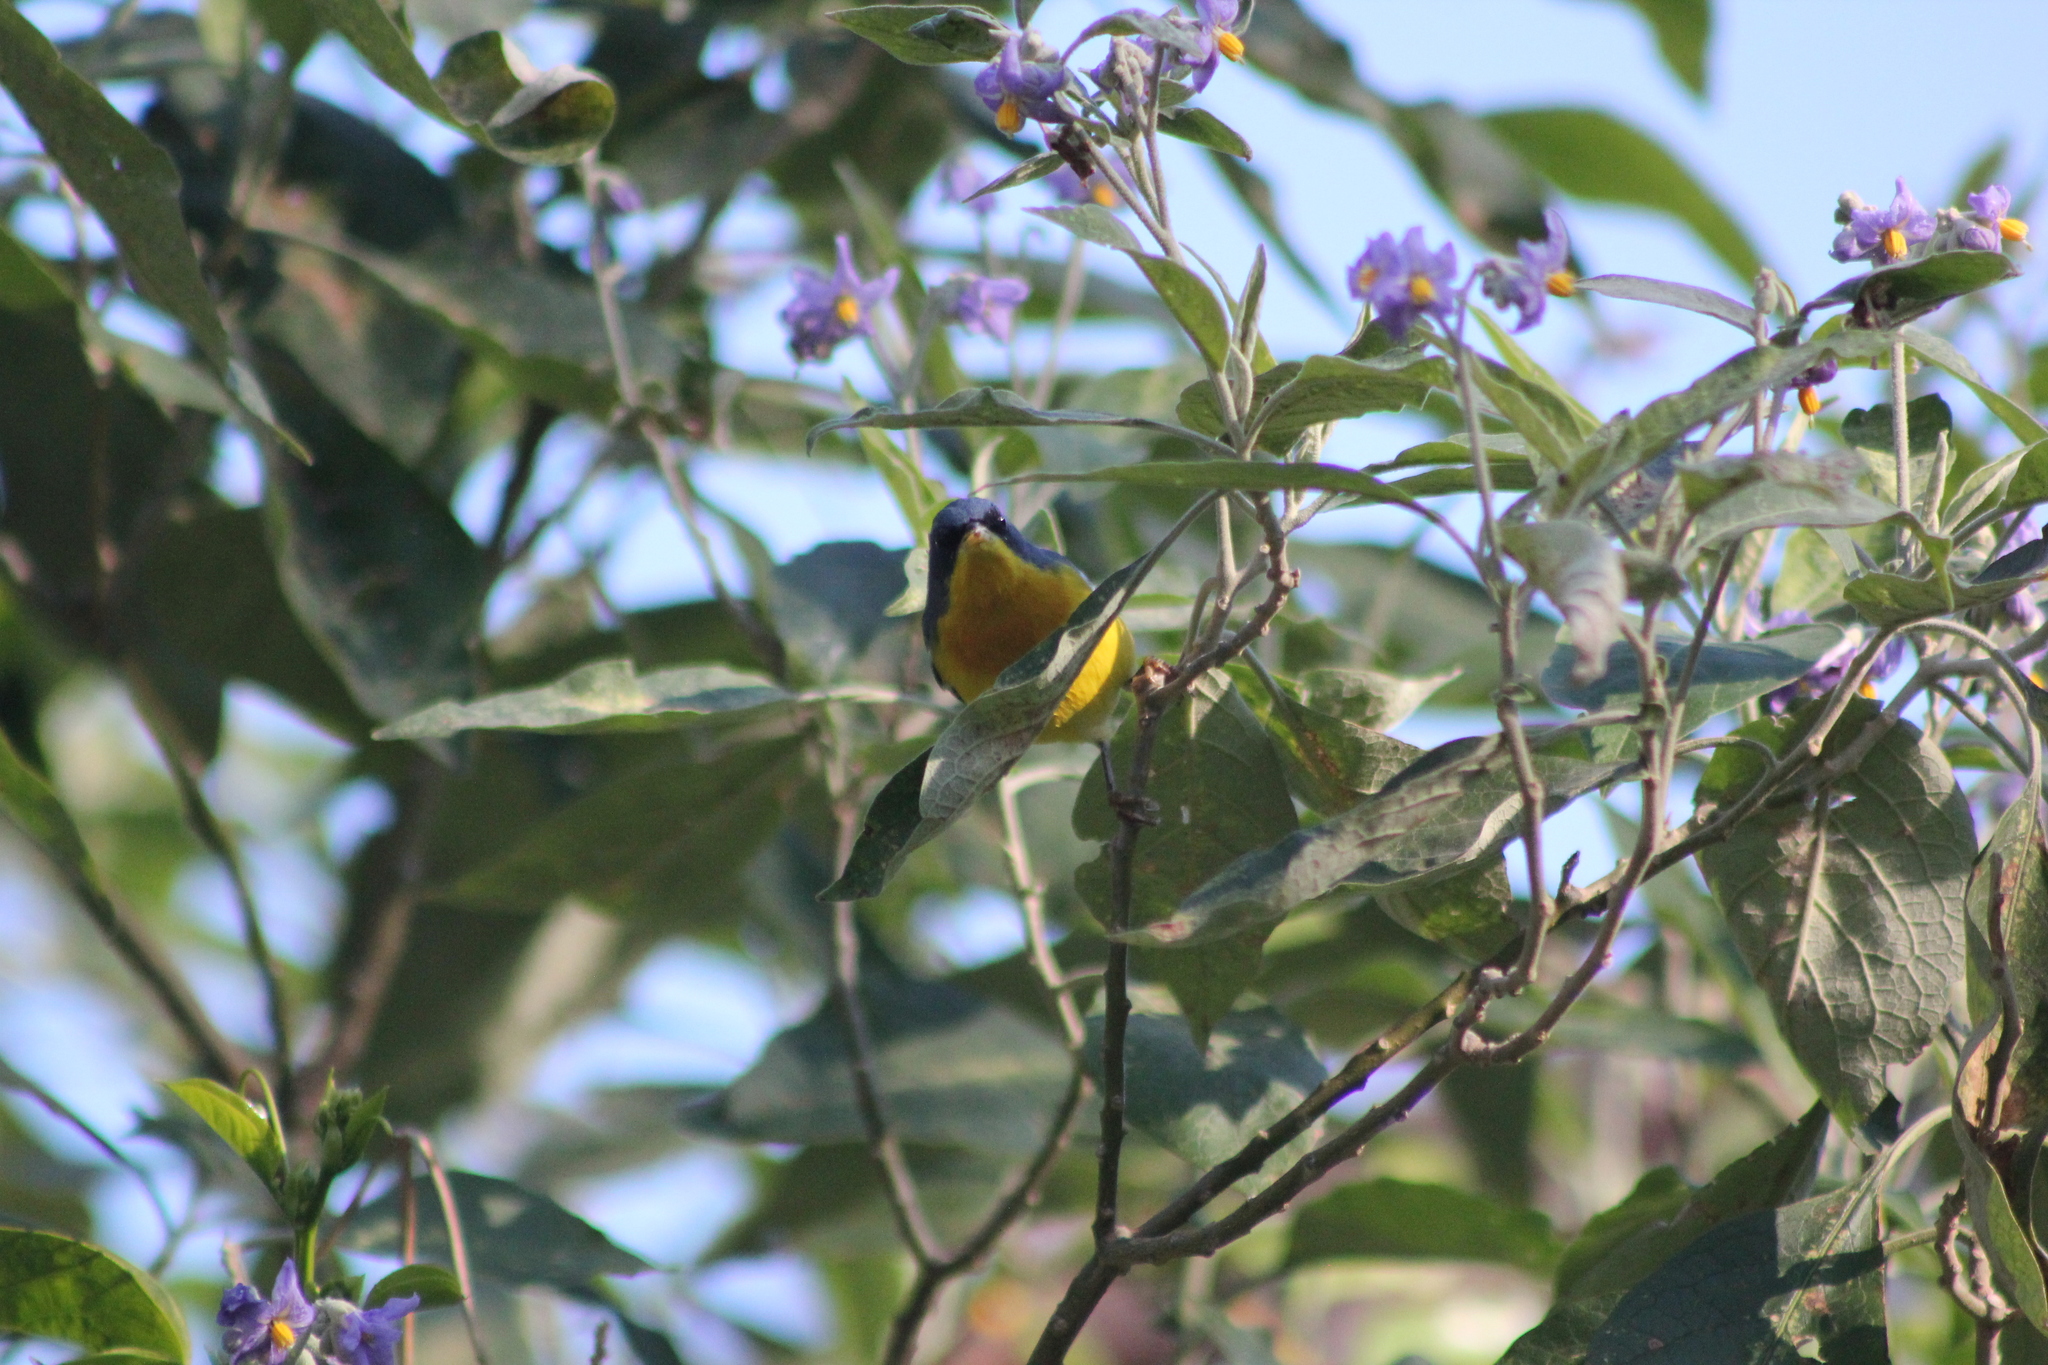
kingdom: Animalia
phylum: Chordata
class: Aves
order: Passeriformes
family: Parulidae
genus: Setophaga
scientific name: Setophaga pitiayumi
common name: Tropical parula
